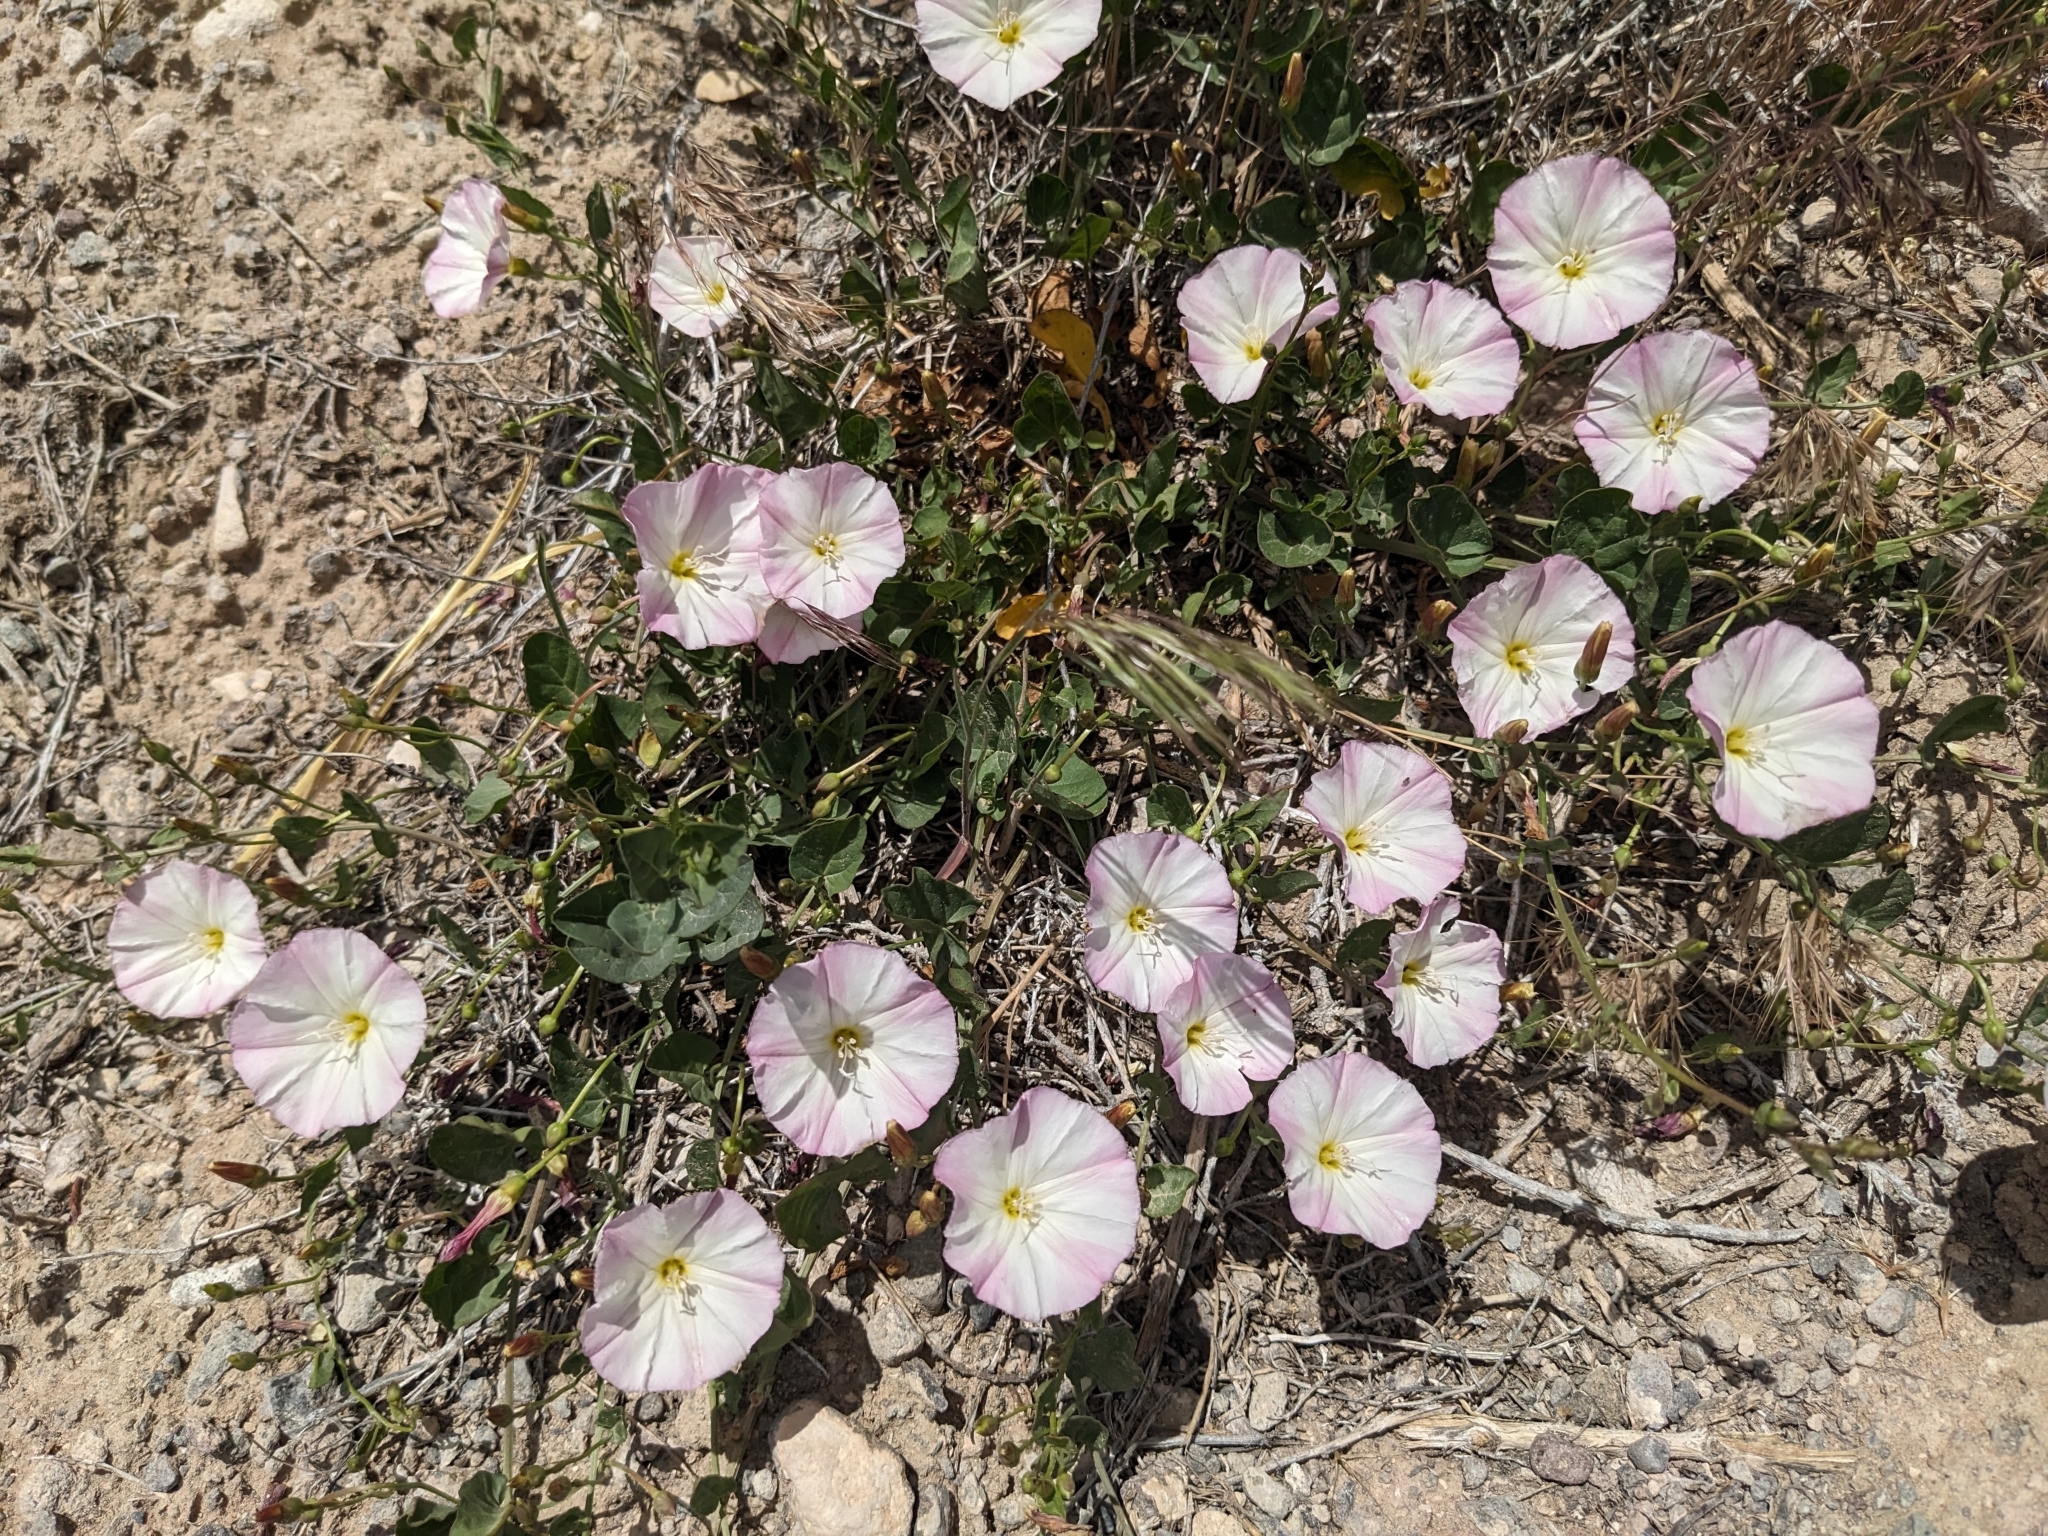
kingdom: Plantae
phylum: Tracheophyta
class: Magnoliopsida
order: Solanales
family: Convolvulaceae
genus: Convolvulus
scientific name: Convolvulus arvensis
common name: Field bindweed
